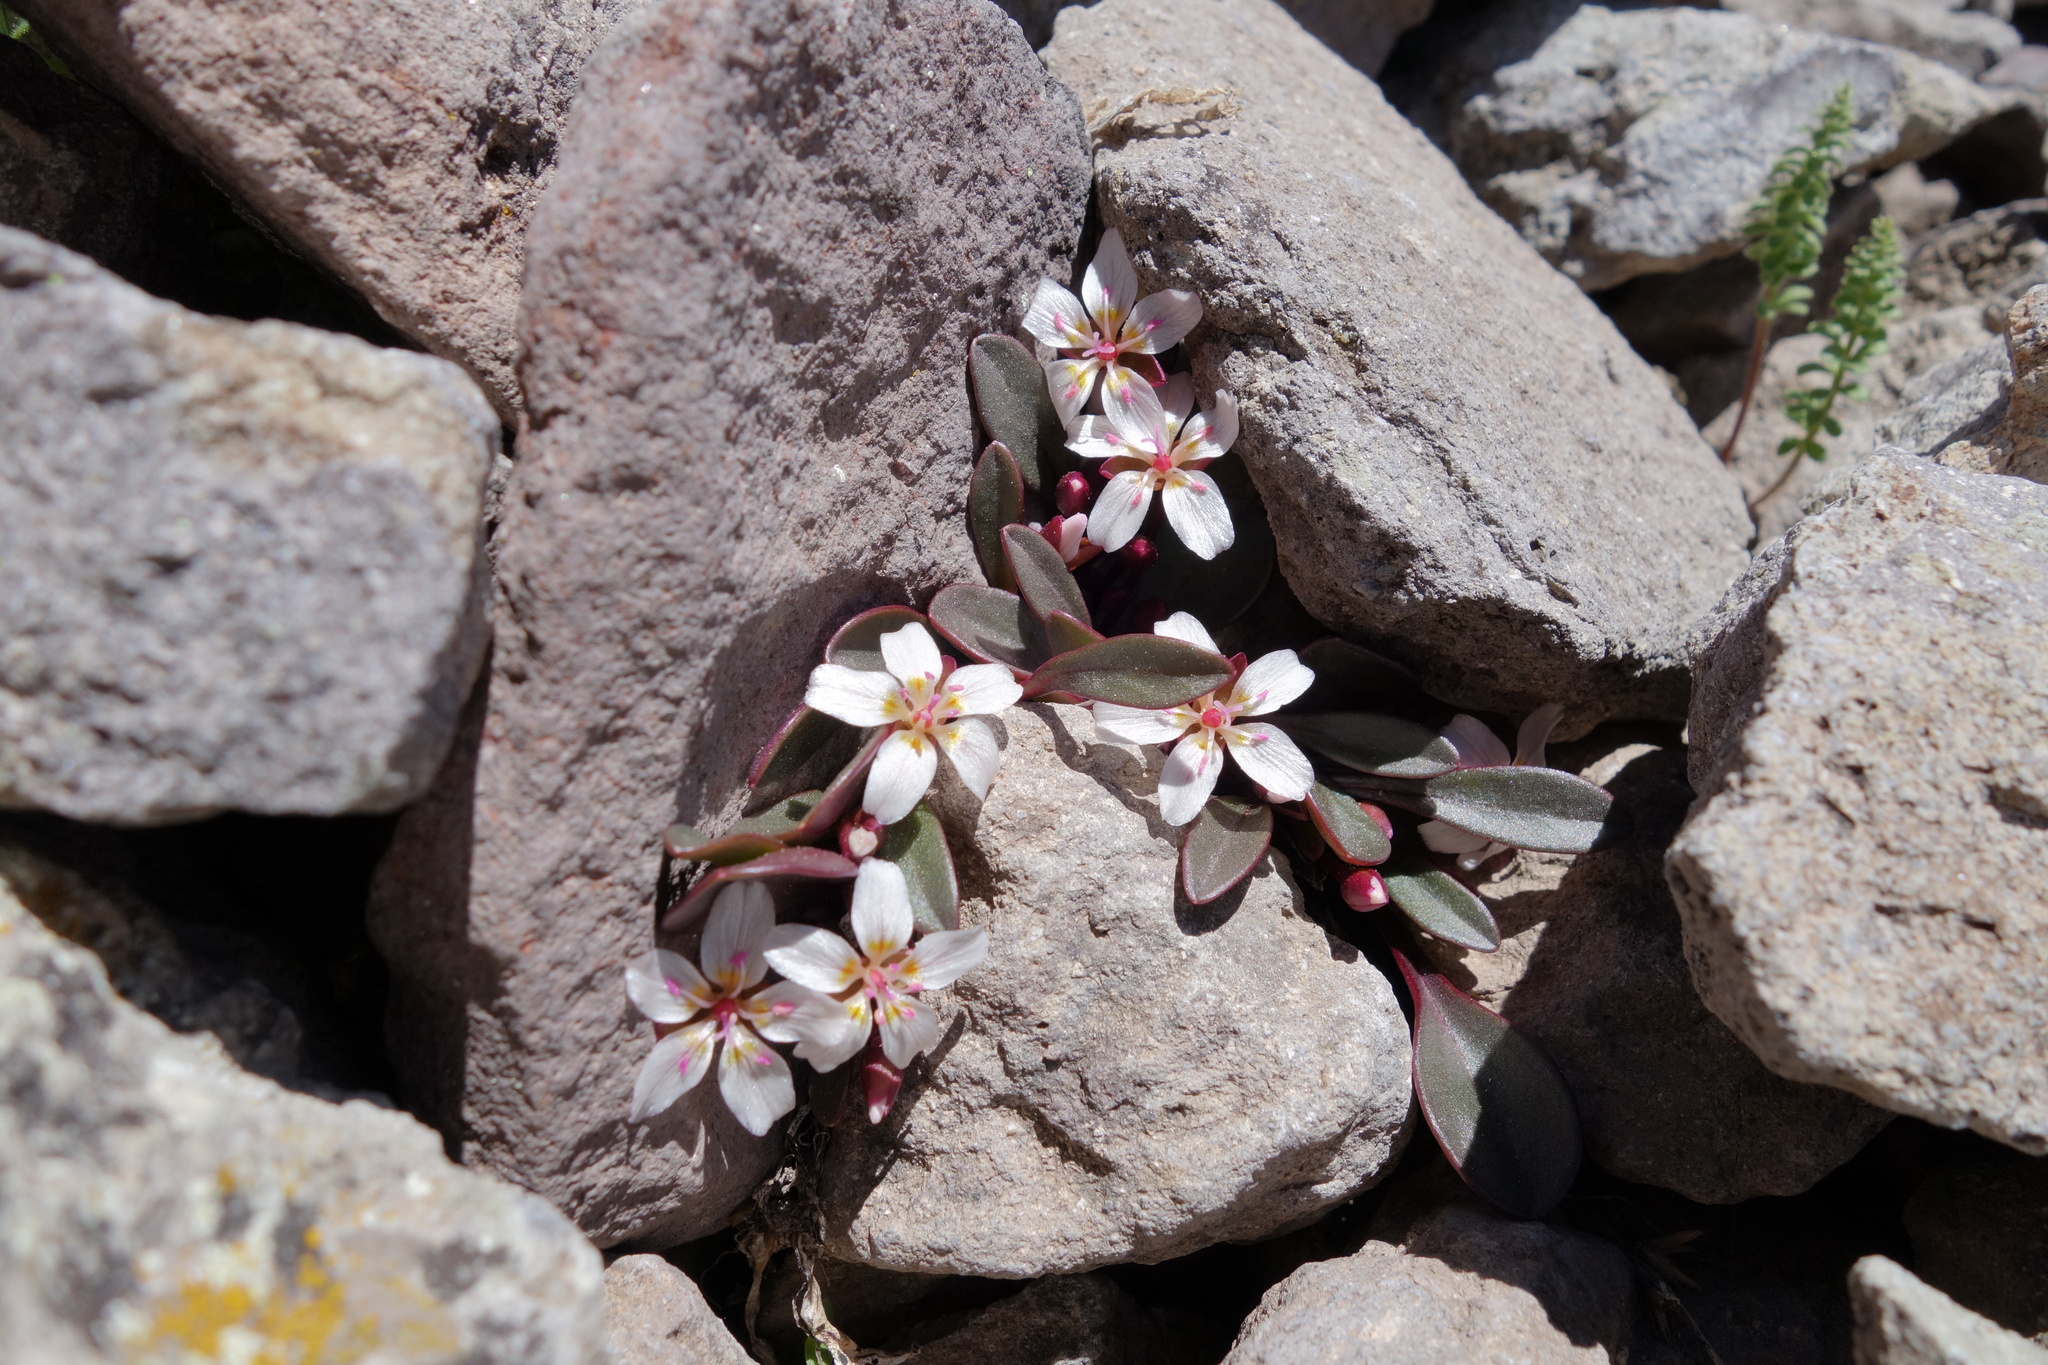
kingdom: Plantae
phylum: Tracheophyta
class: Magnoliopsida
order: Caryophyllales
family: Montiaceae
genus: Claytonia
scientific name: Claytonia megarhiza
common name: Alpine spring beauty
